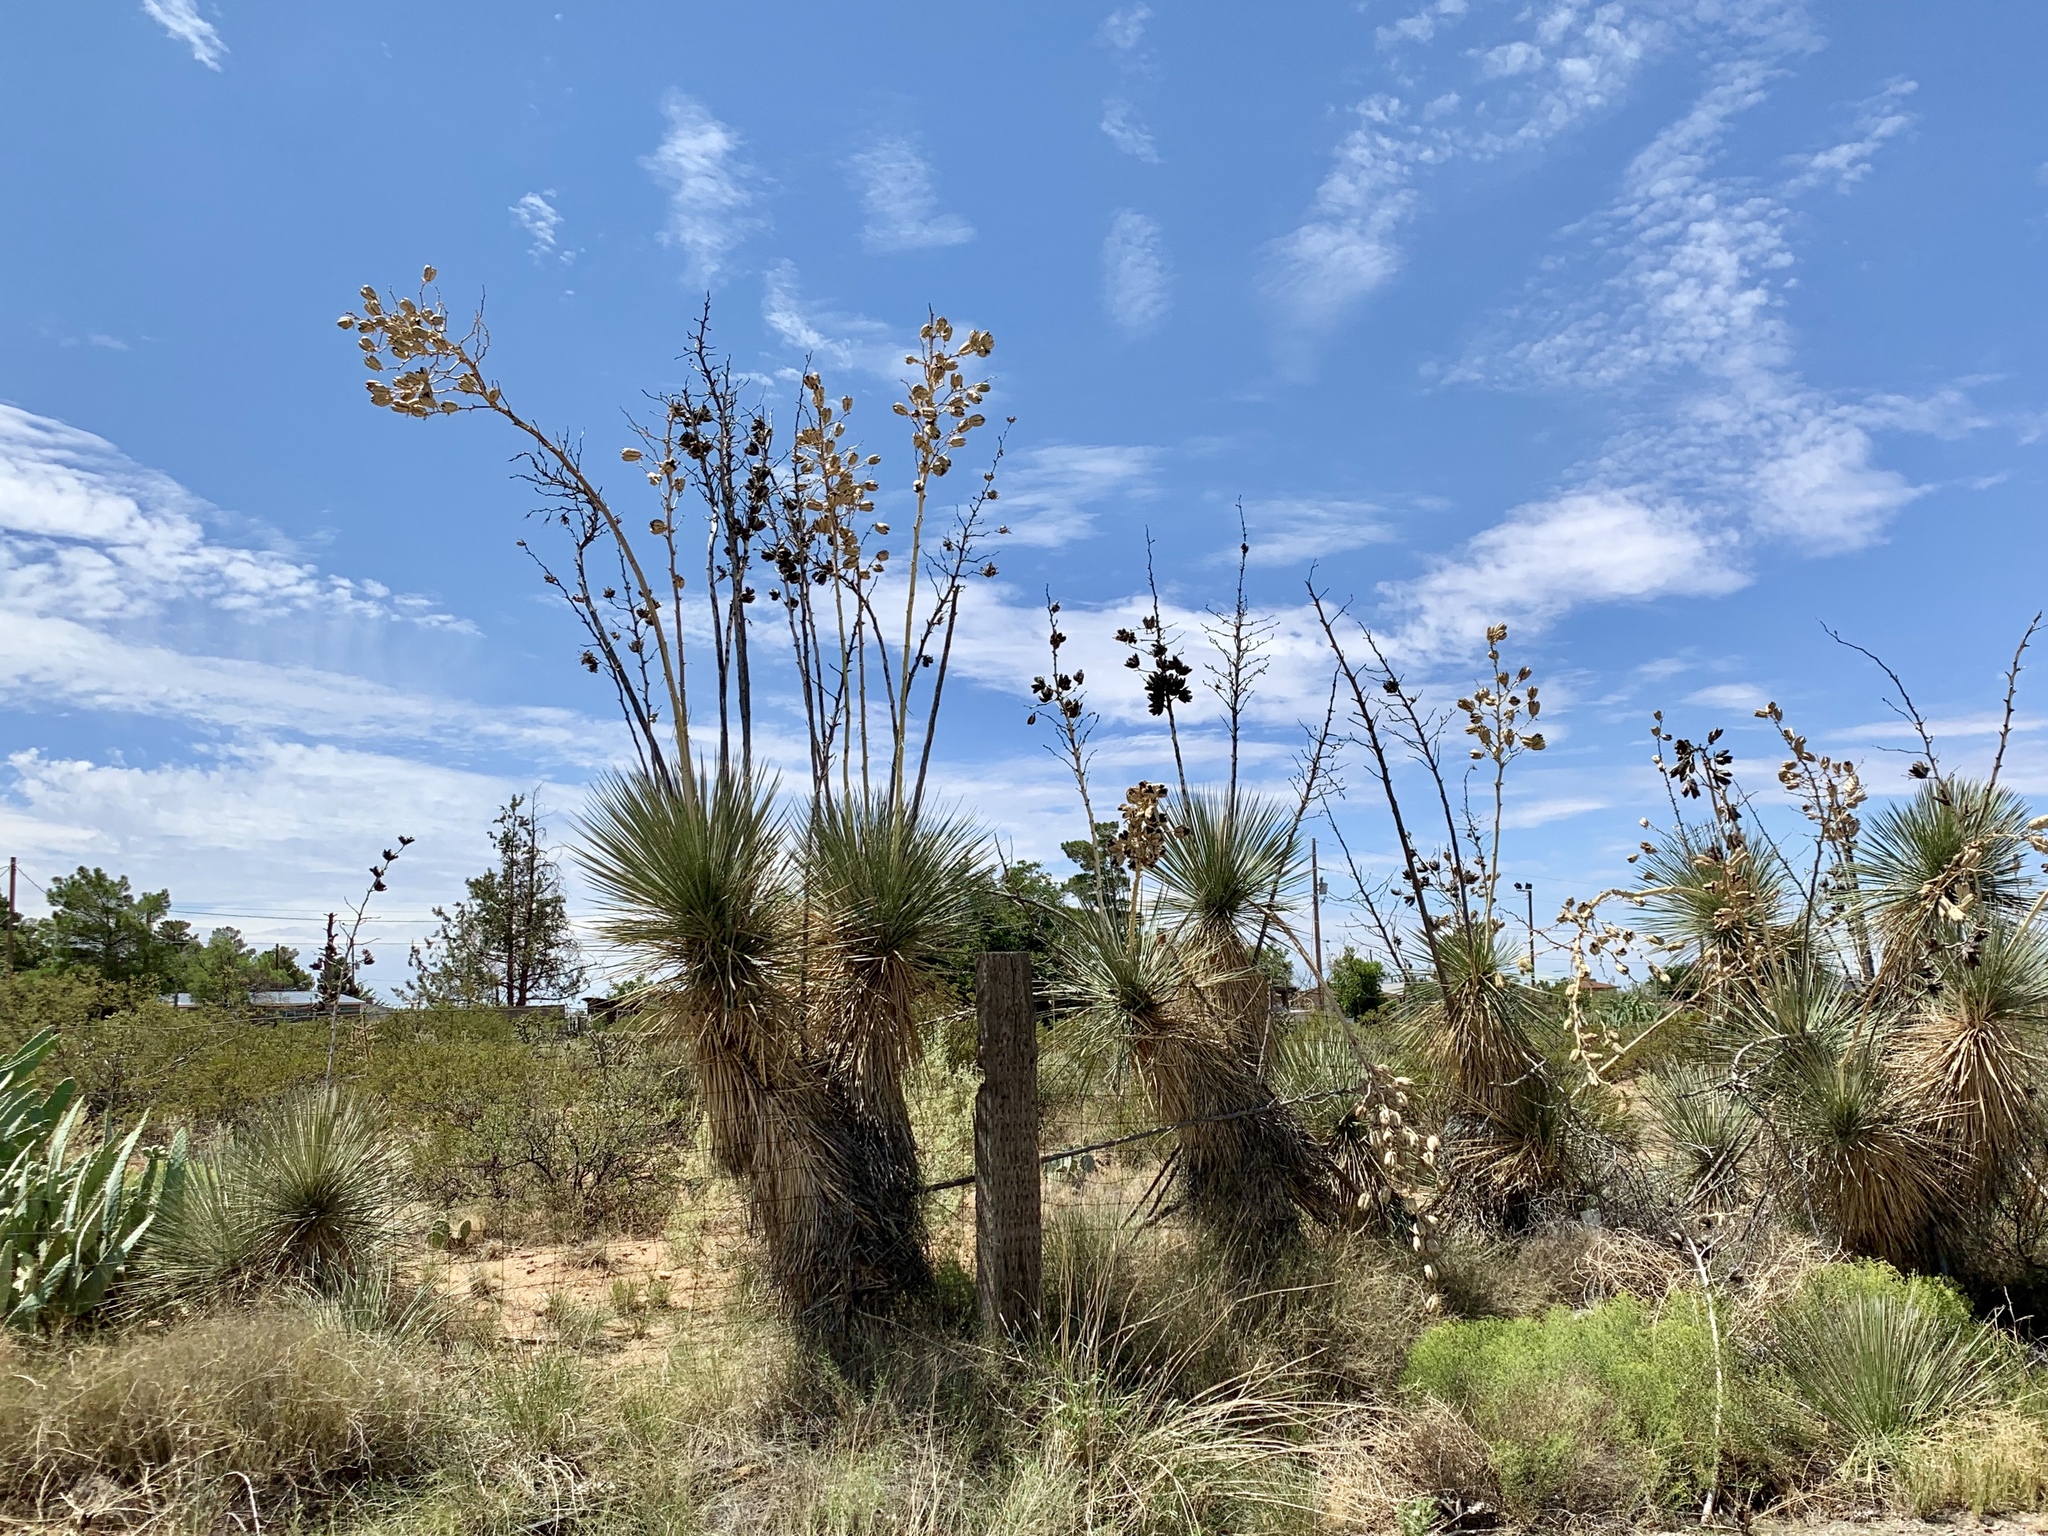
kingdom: Plantae
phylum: Tracheophyta
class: Liliopsida
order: Asparagales
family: Asparagaceae
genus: Yucca
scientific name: Yucca elata
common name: Palmella
